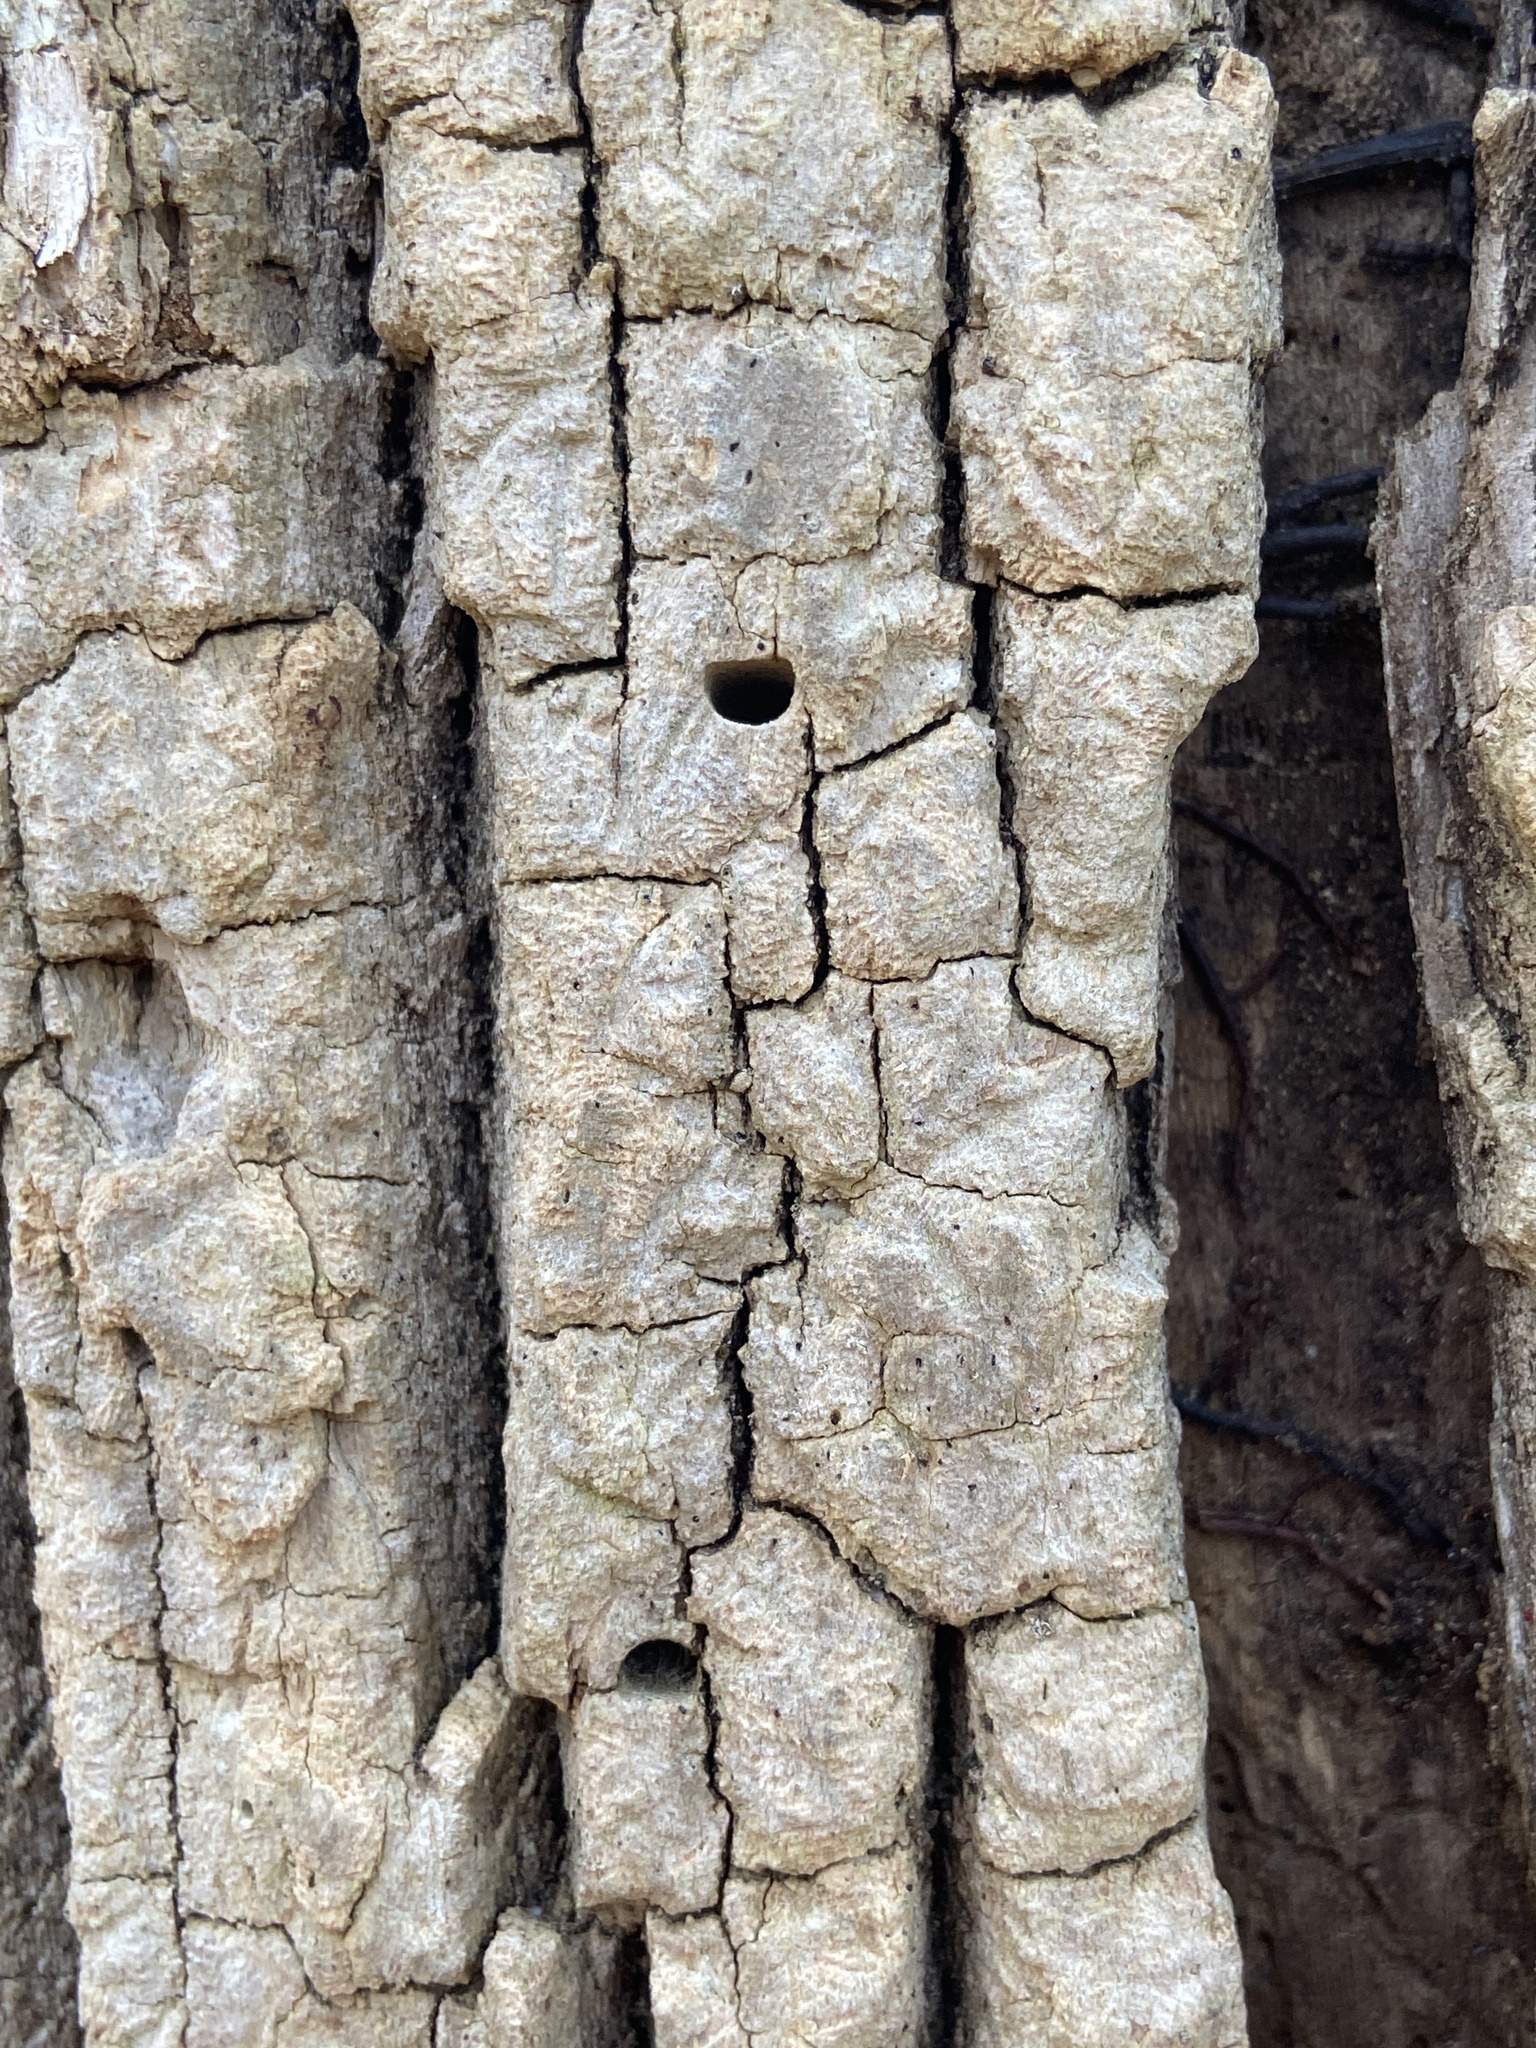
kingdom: Animalia
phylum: Arthropoda
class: Insecta
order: Coleoptera
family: Buprestidae
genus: Agrilus
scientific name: Agrilus planipennis
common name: Emerald ash borer
